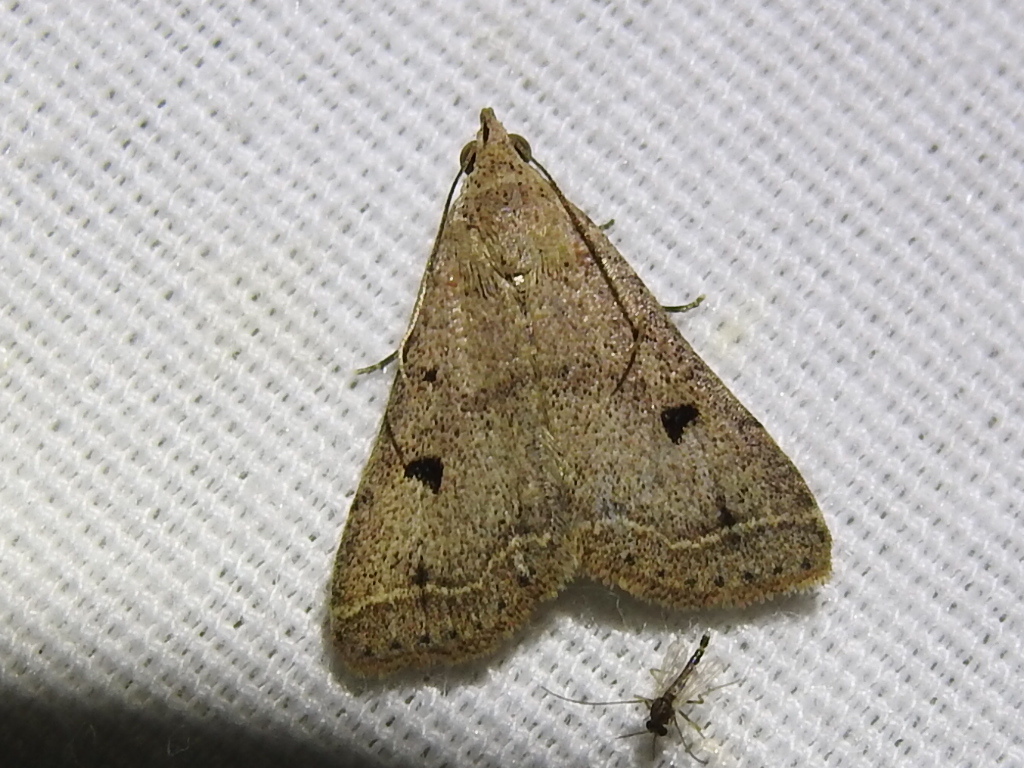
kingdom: Animalia
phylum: Arthropoda
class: Insecta
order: Lepidoptera
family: Erebidae
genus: Bleptina
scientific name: Bleptina caradrinalis
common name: Bent-winged owlet
